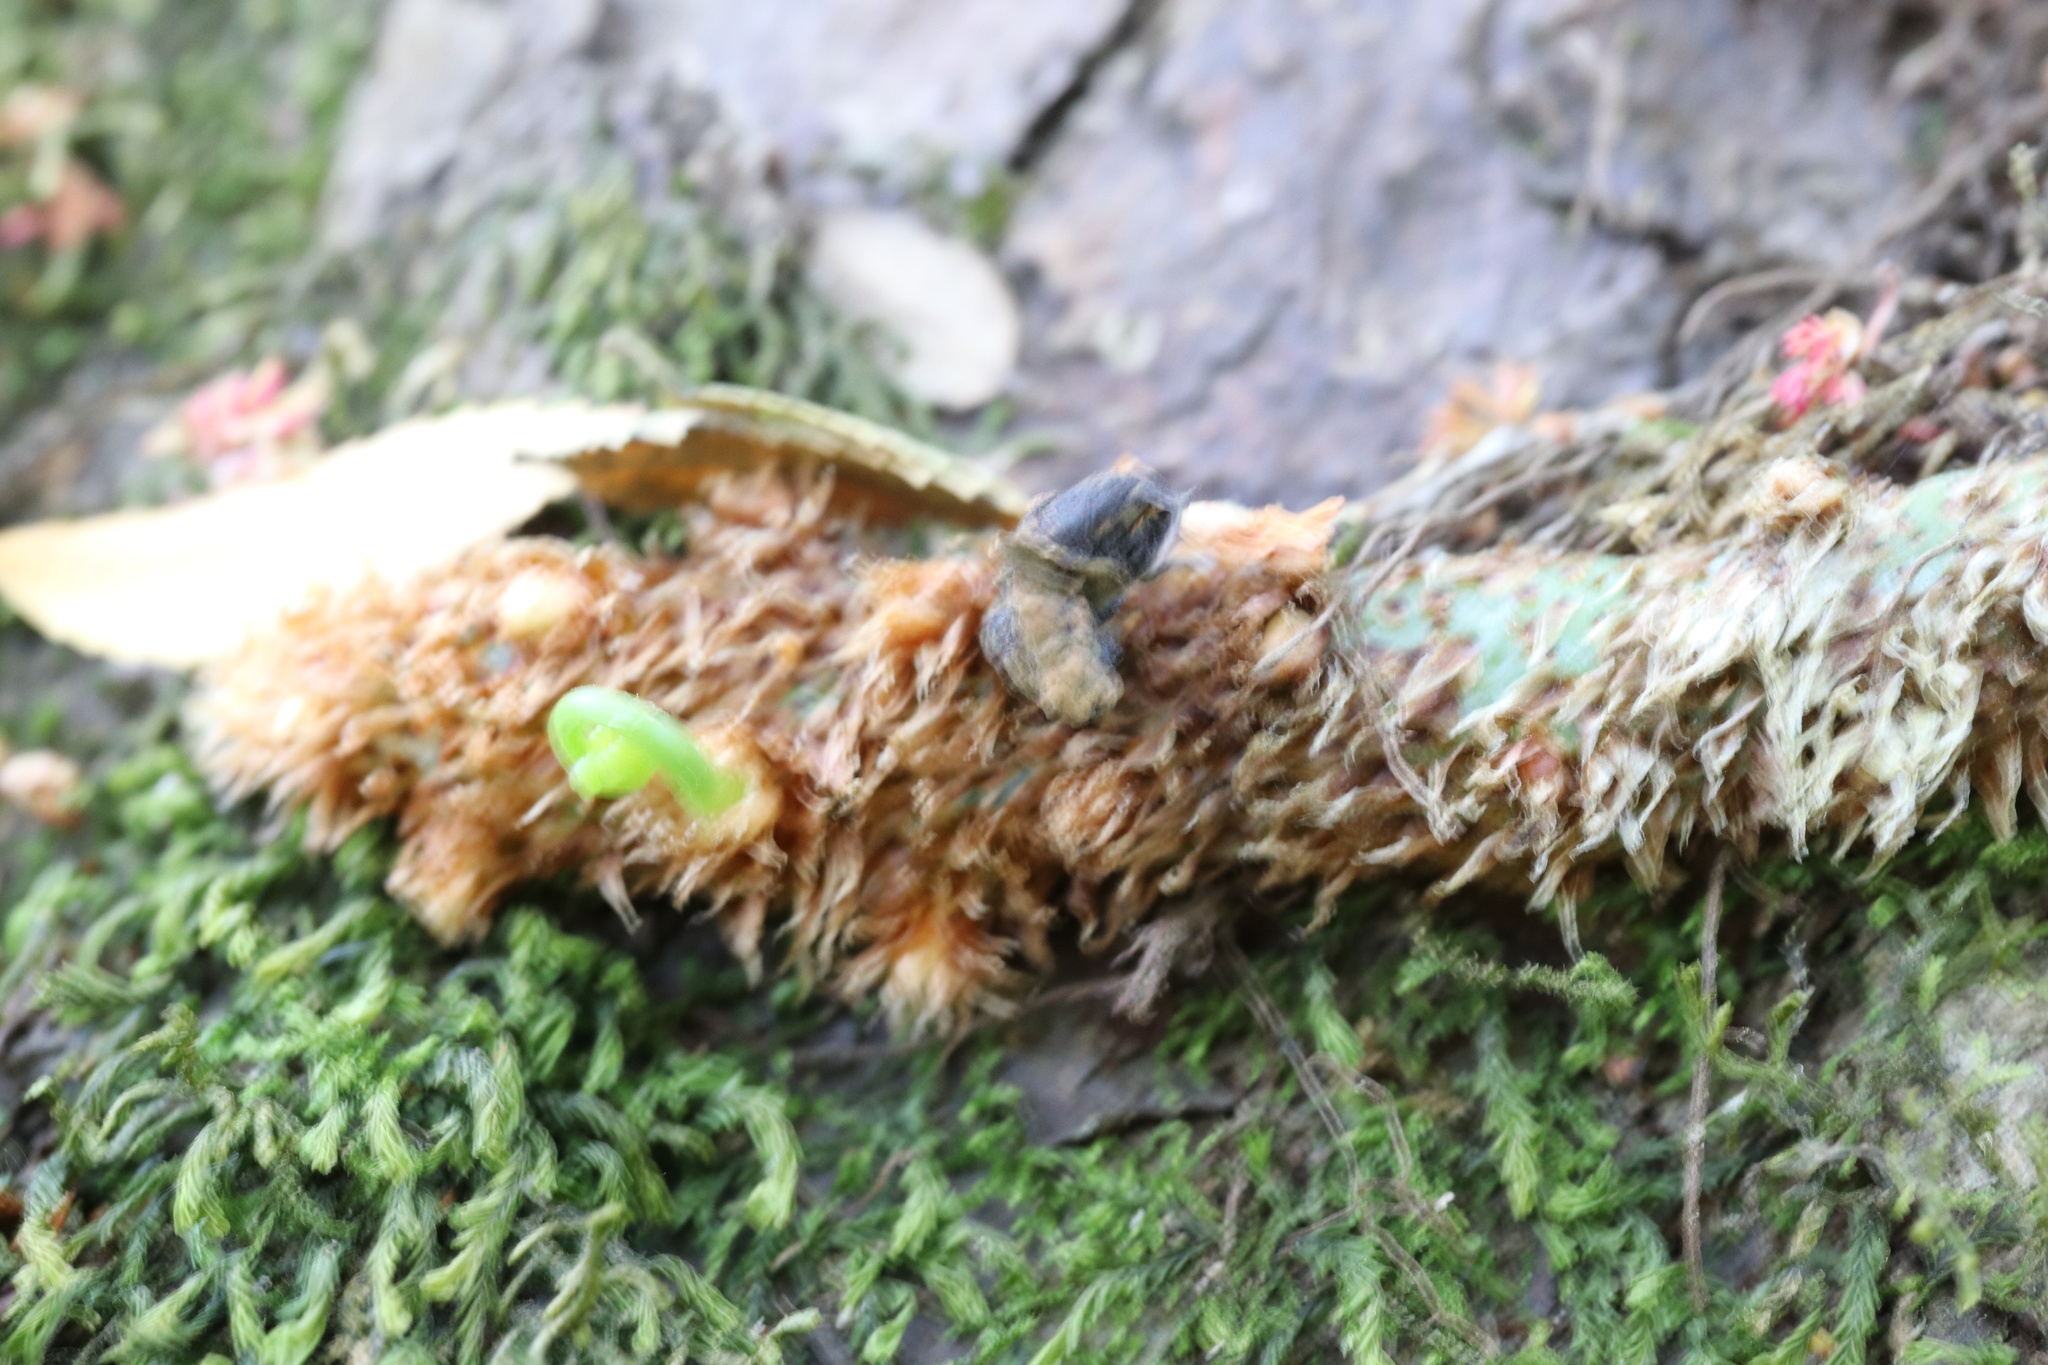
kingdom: Plantae
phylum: Tracheophyta
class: Polypodiopsida
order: Polypodiales
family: Polypodiaceae
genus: Synammia
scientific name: Synammia feuillei
